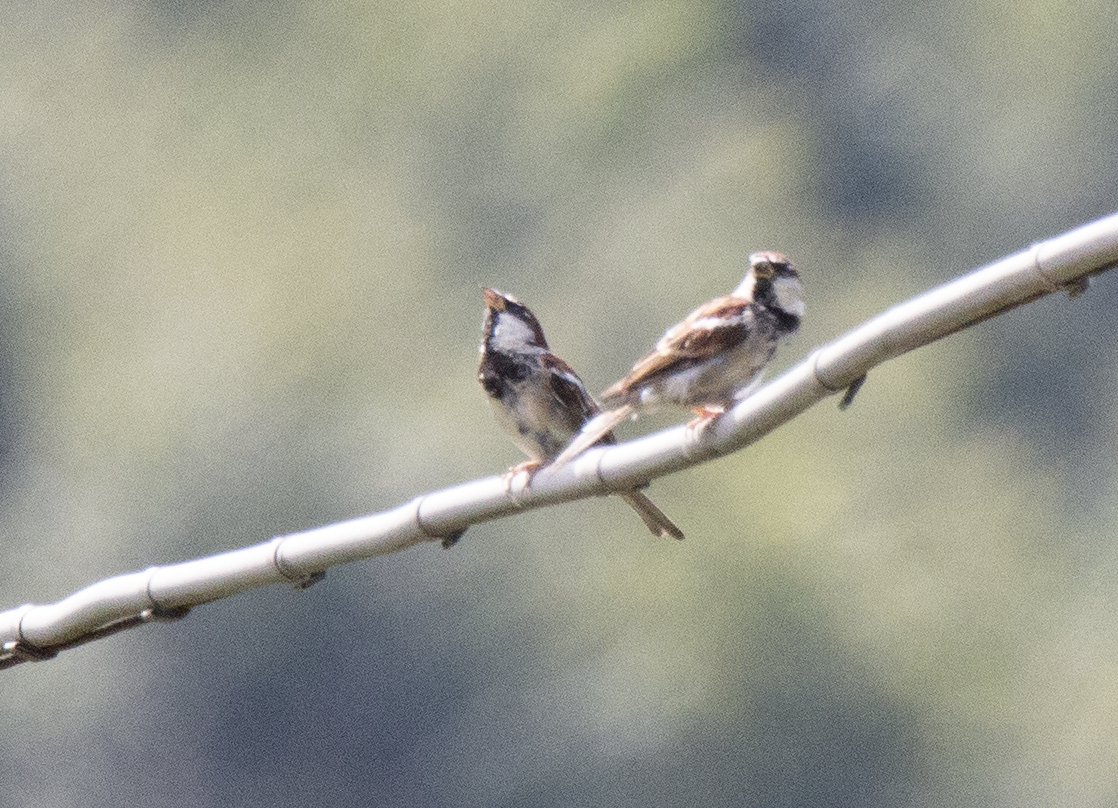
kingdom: Animalia
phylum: Chordata
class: Aves
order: Passeriformes
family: Passeridae
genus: Passer
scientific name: Passer italiae
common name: Italian sparrow
